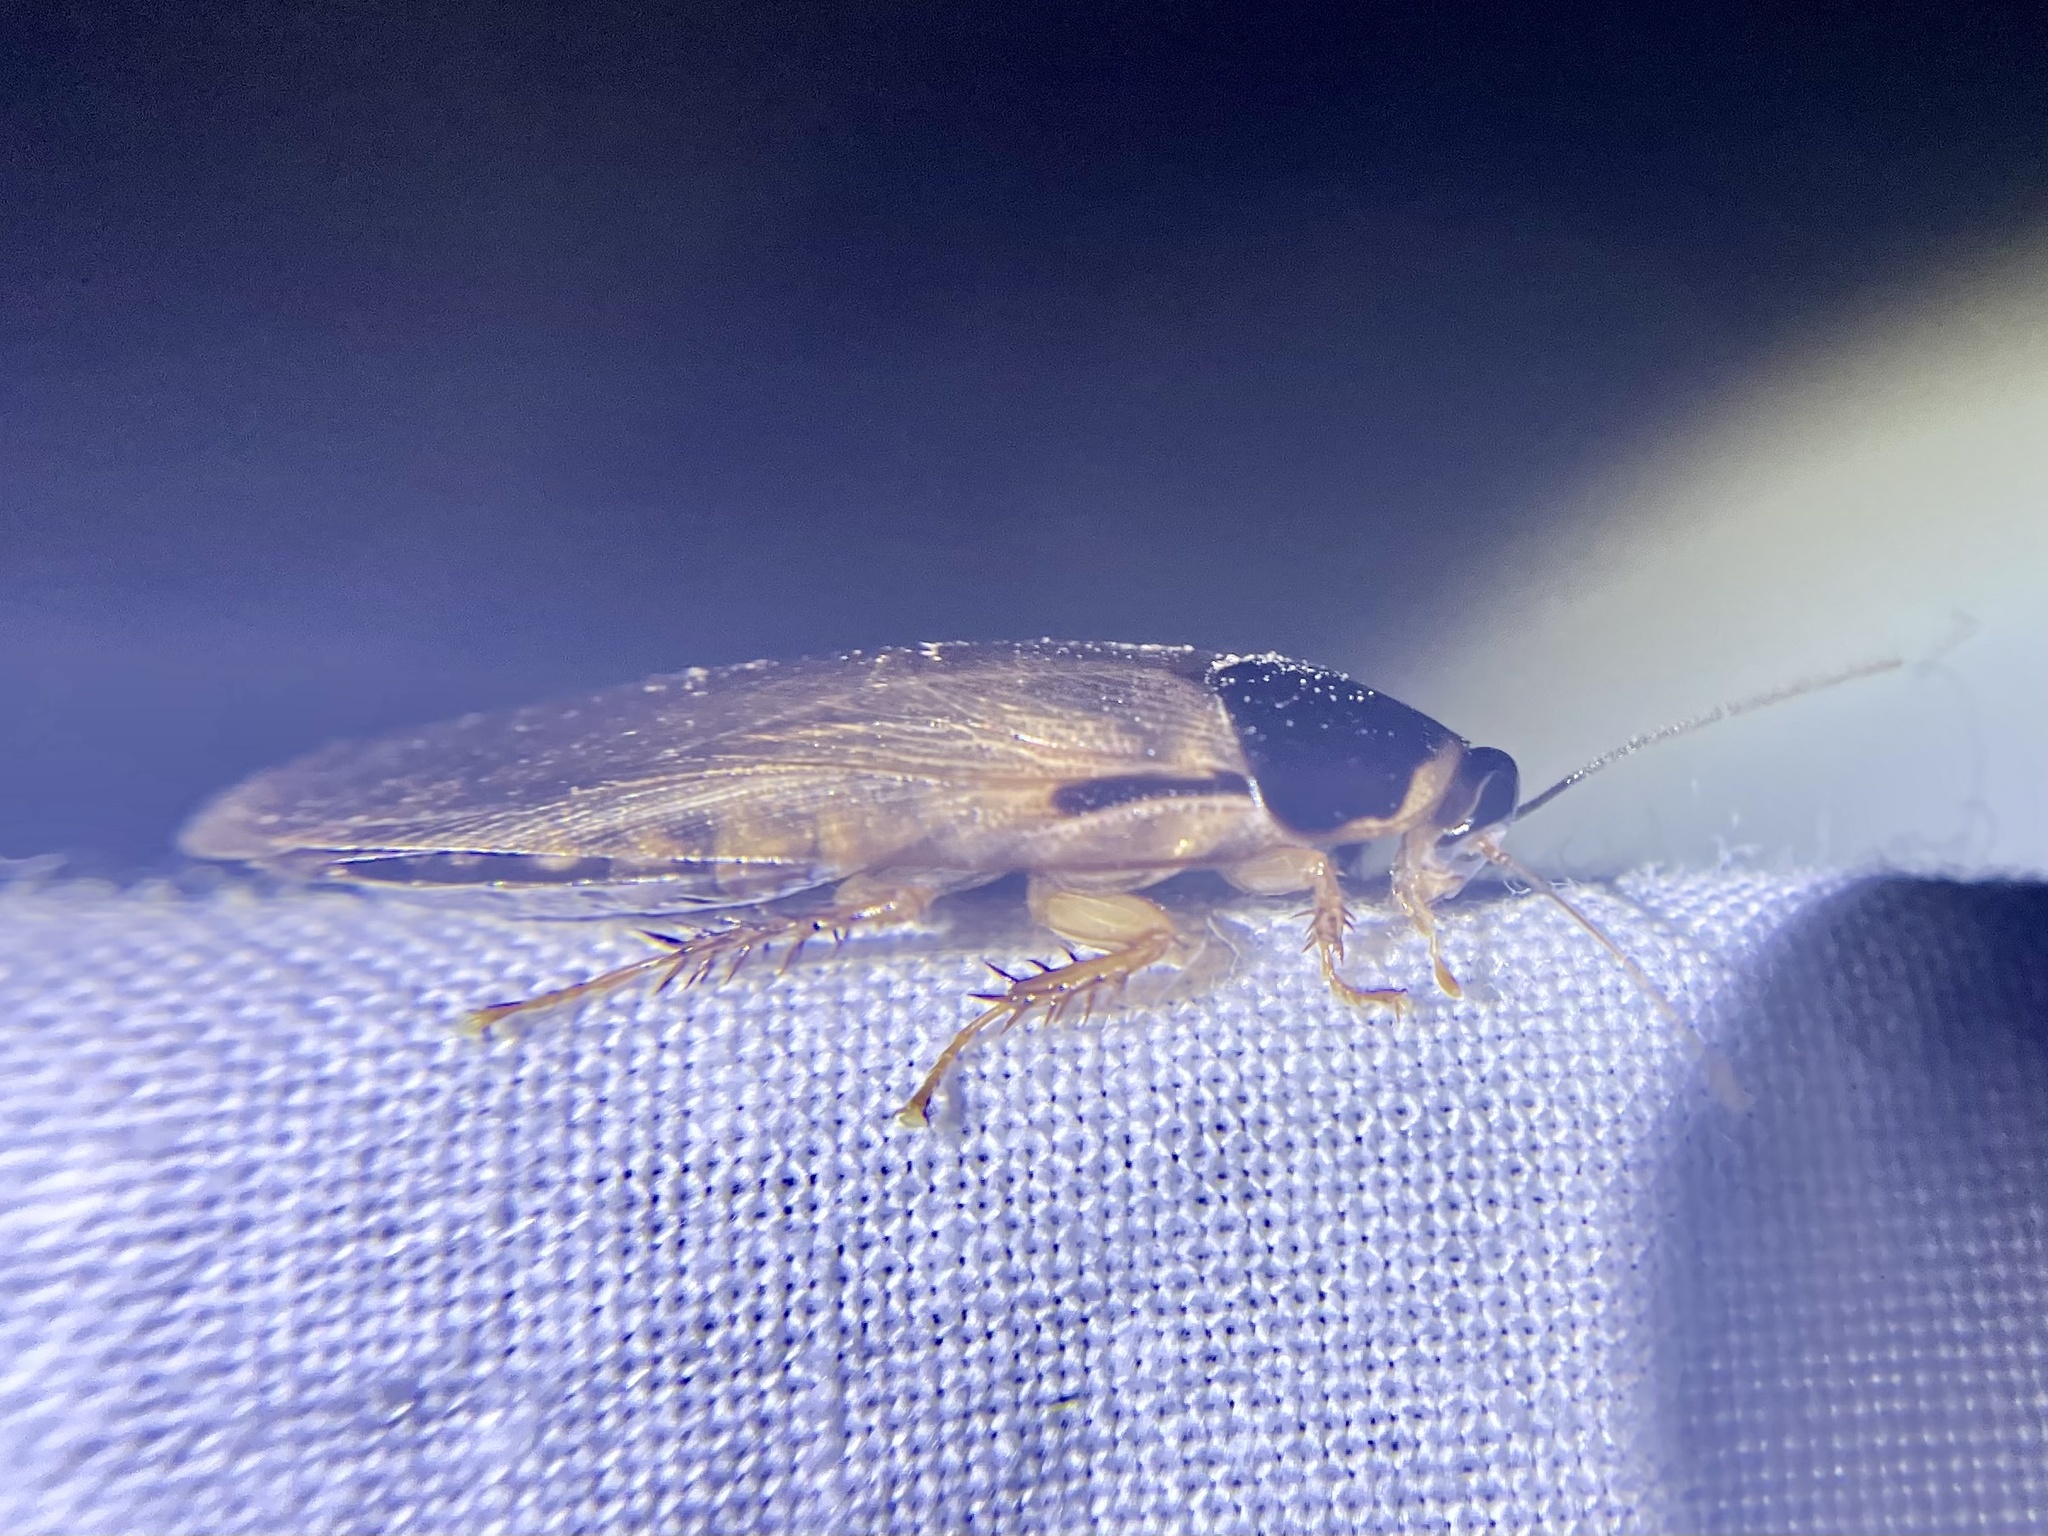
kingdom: Animalia
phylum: Arthropoda
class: Insecta
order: Blattodea
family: Blaberidae
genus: Pycnoscelus
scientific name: Pycnoscelus surinamensis
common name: Surinam cockroach
